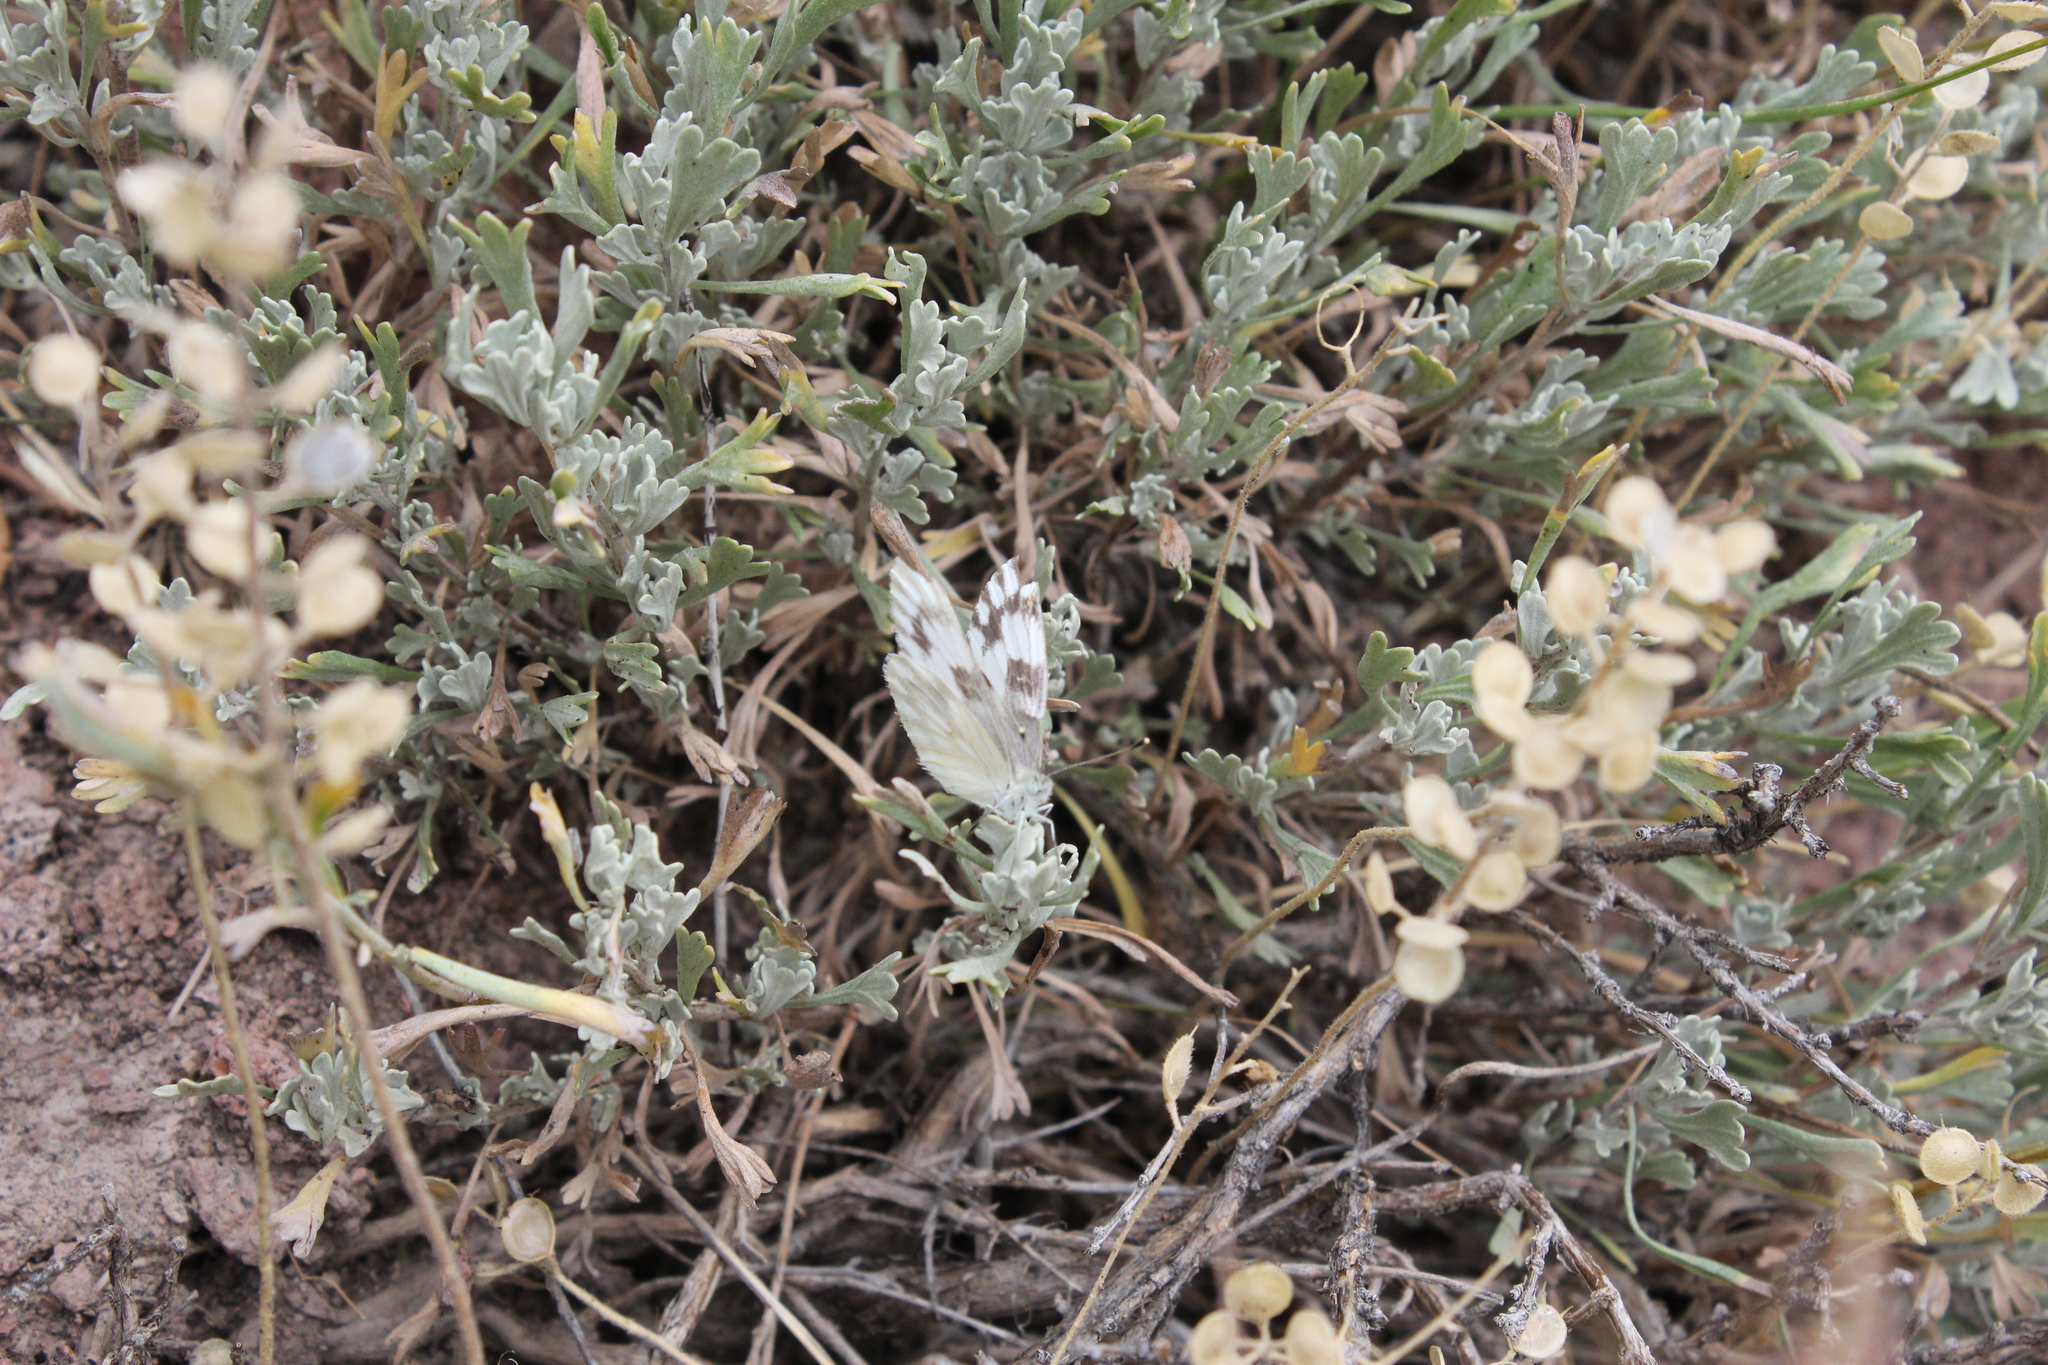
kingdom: Animalia
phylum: Arthropoda
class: Insecta
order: Lepidoptera
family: Pieridae
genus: Pontia
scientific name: Pontia protodice
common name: Checkered white
